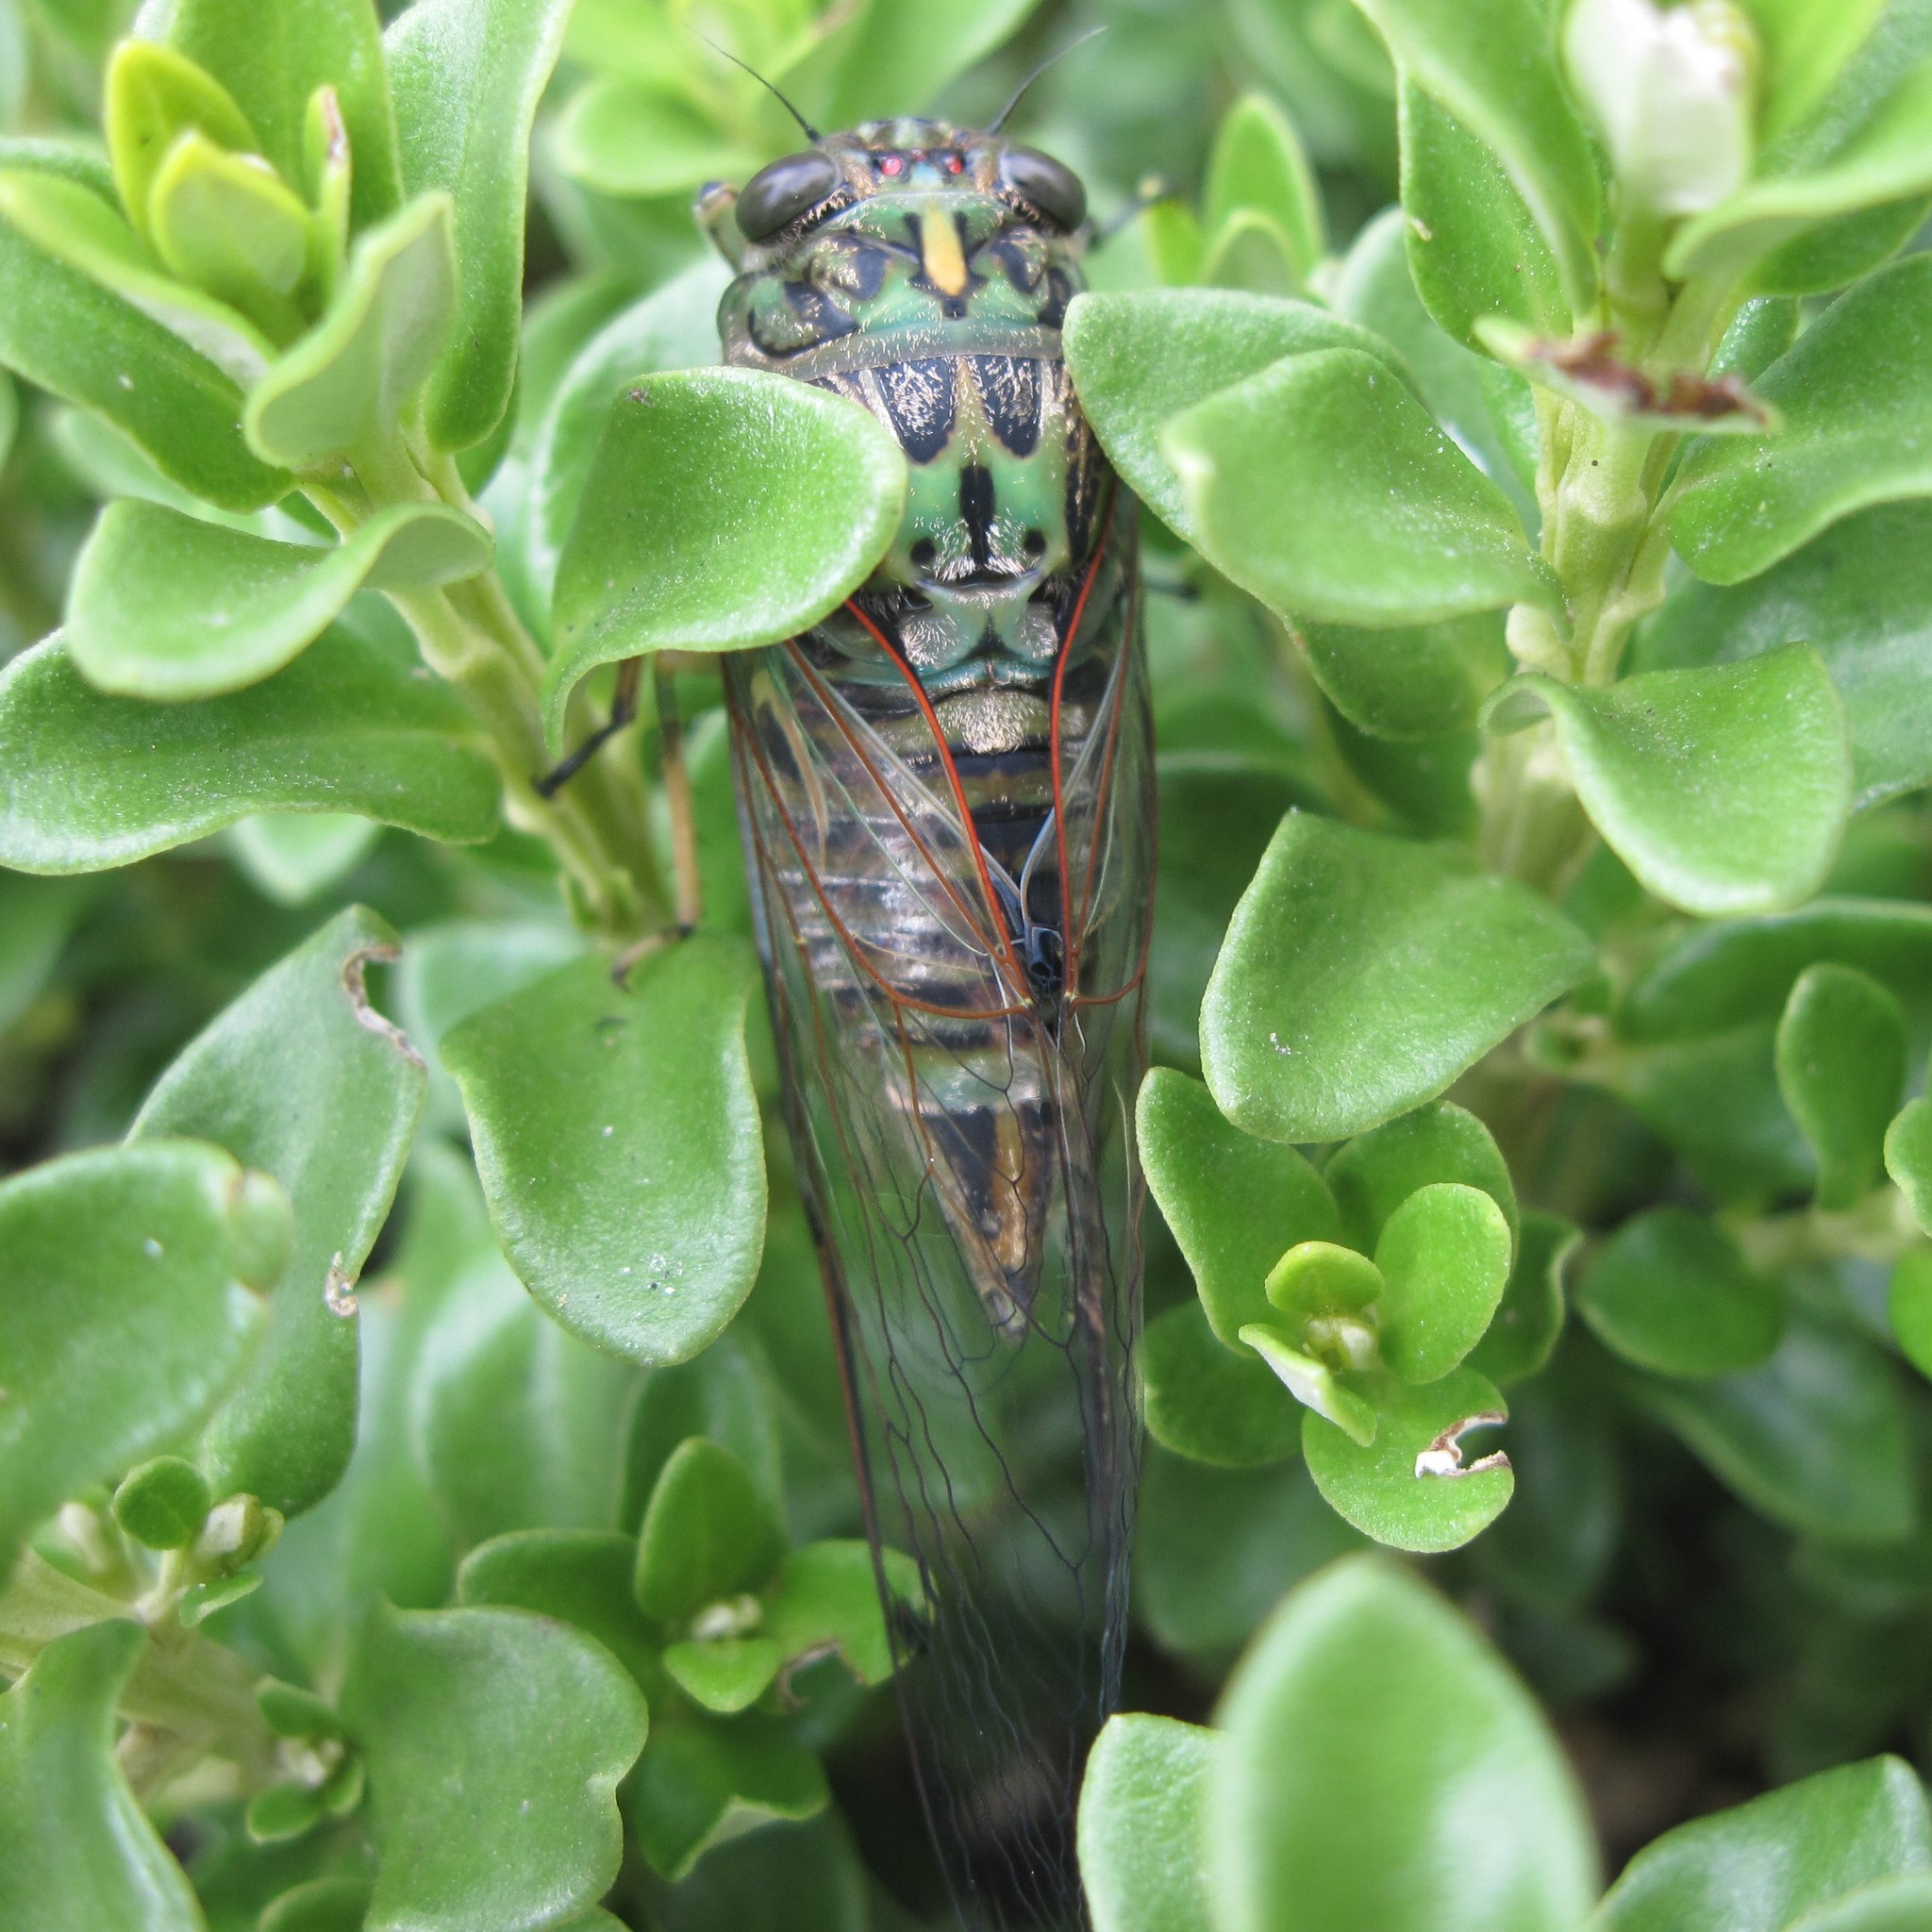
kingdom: Animalia
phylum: Arthropoda
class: Insecta
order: Hemiptera
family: Cicadidae
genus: Amphipsalta
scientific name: Amphipsalta zelandica
